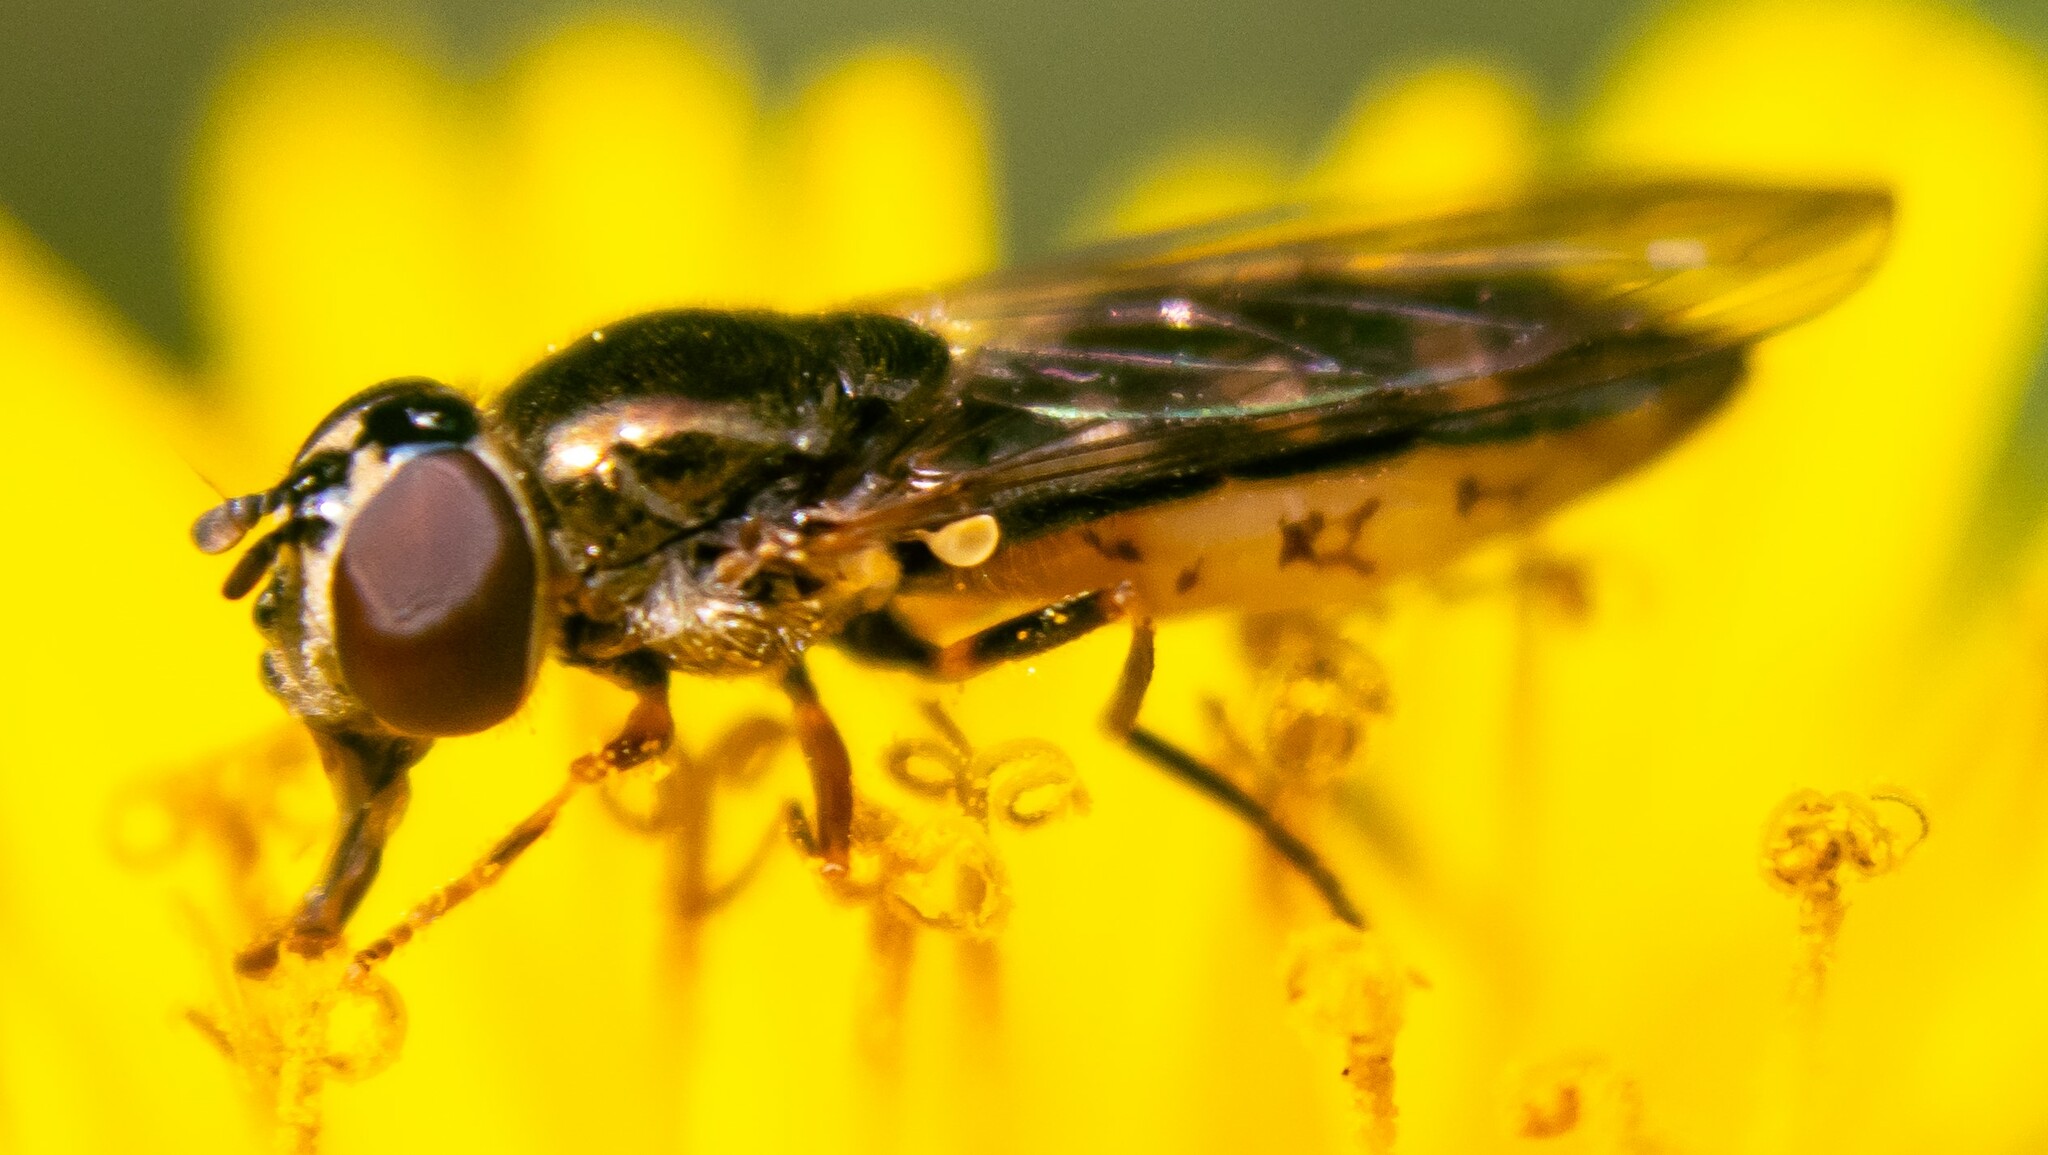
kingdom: Animalia
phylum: Arthropoda
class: Insecta
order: Diptera
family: Syrphidae
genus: Platycheirus
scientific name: Platycheirus
